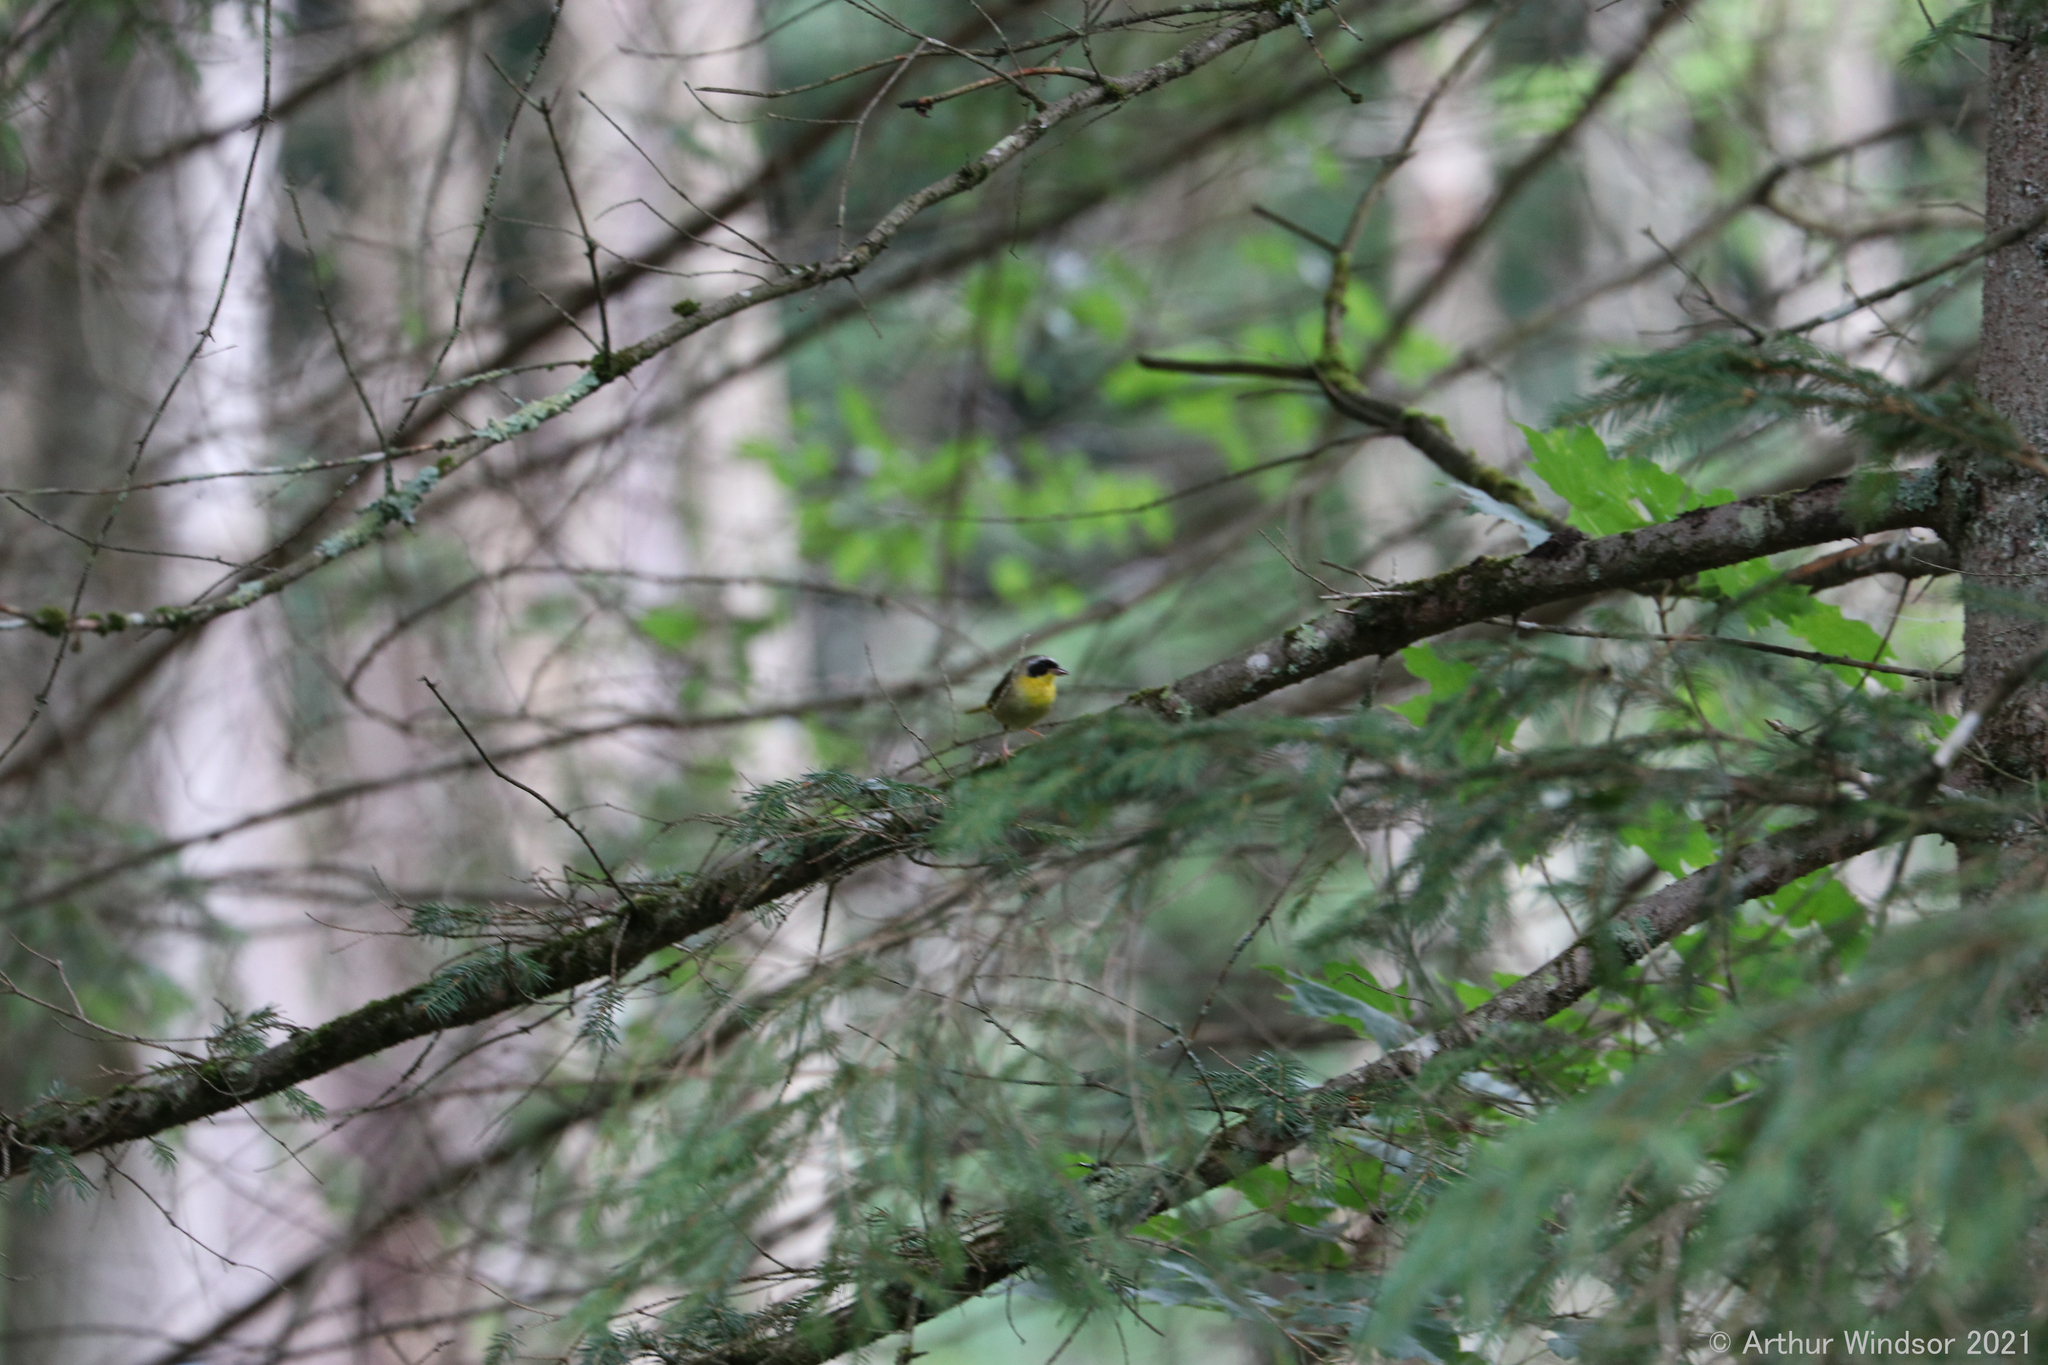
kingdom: Animalia
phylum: Chordata
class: Aves
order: Passeriformes
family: Parulidae
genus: Geothlypis
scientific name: Geothlypis trichas
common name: Common yellowthroat
